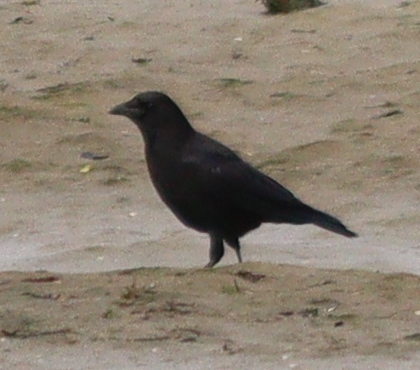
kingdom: Animalia
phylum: Chordata
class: Aves
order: Passeriformes
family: Corvidae
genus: Corvus
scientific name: Corvus corone
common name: Carrion crow
